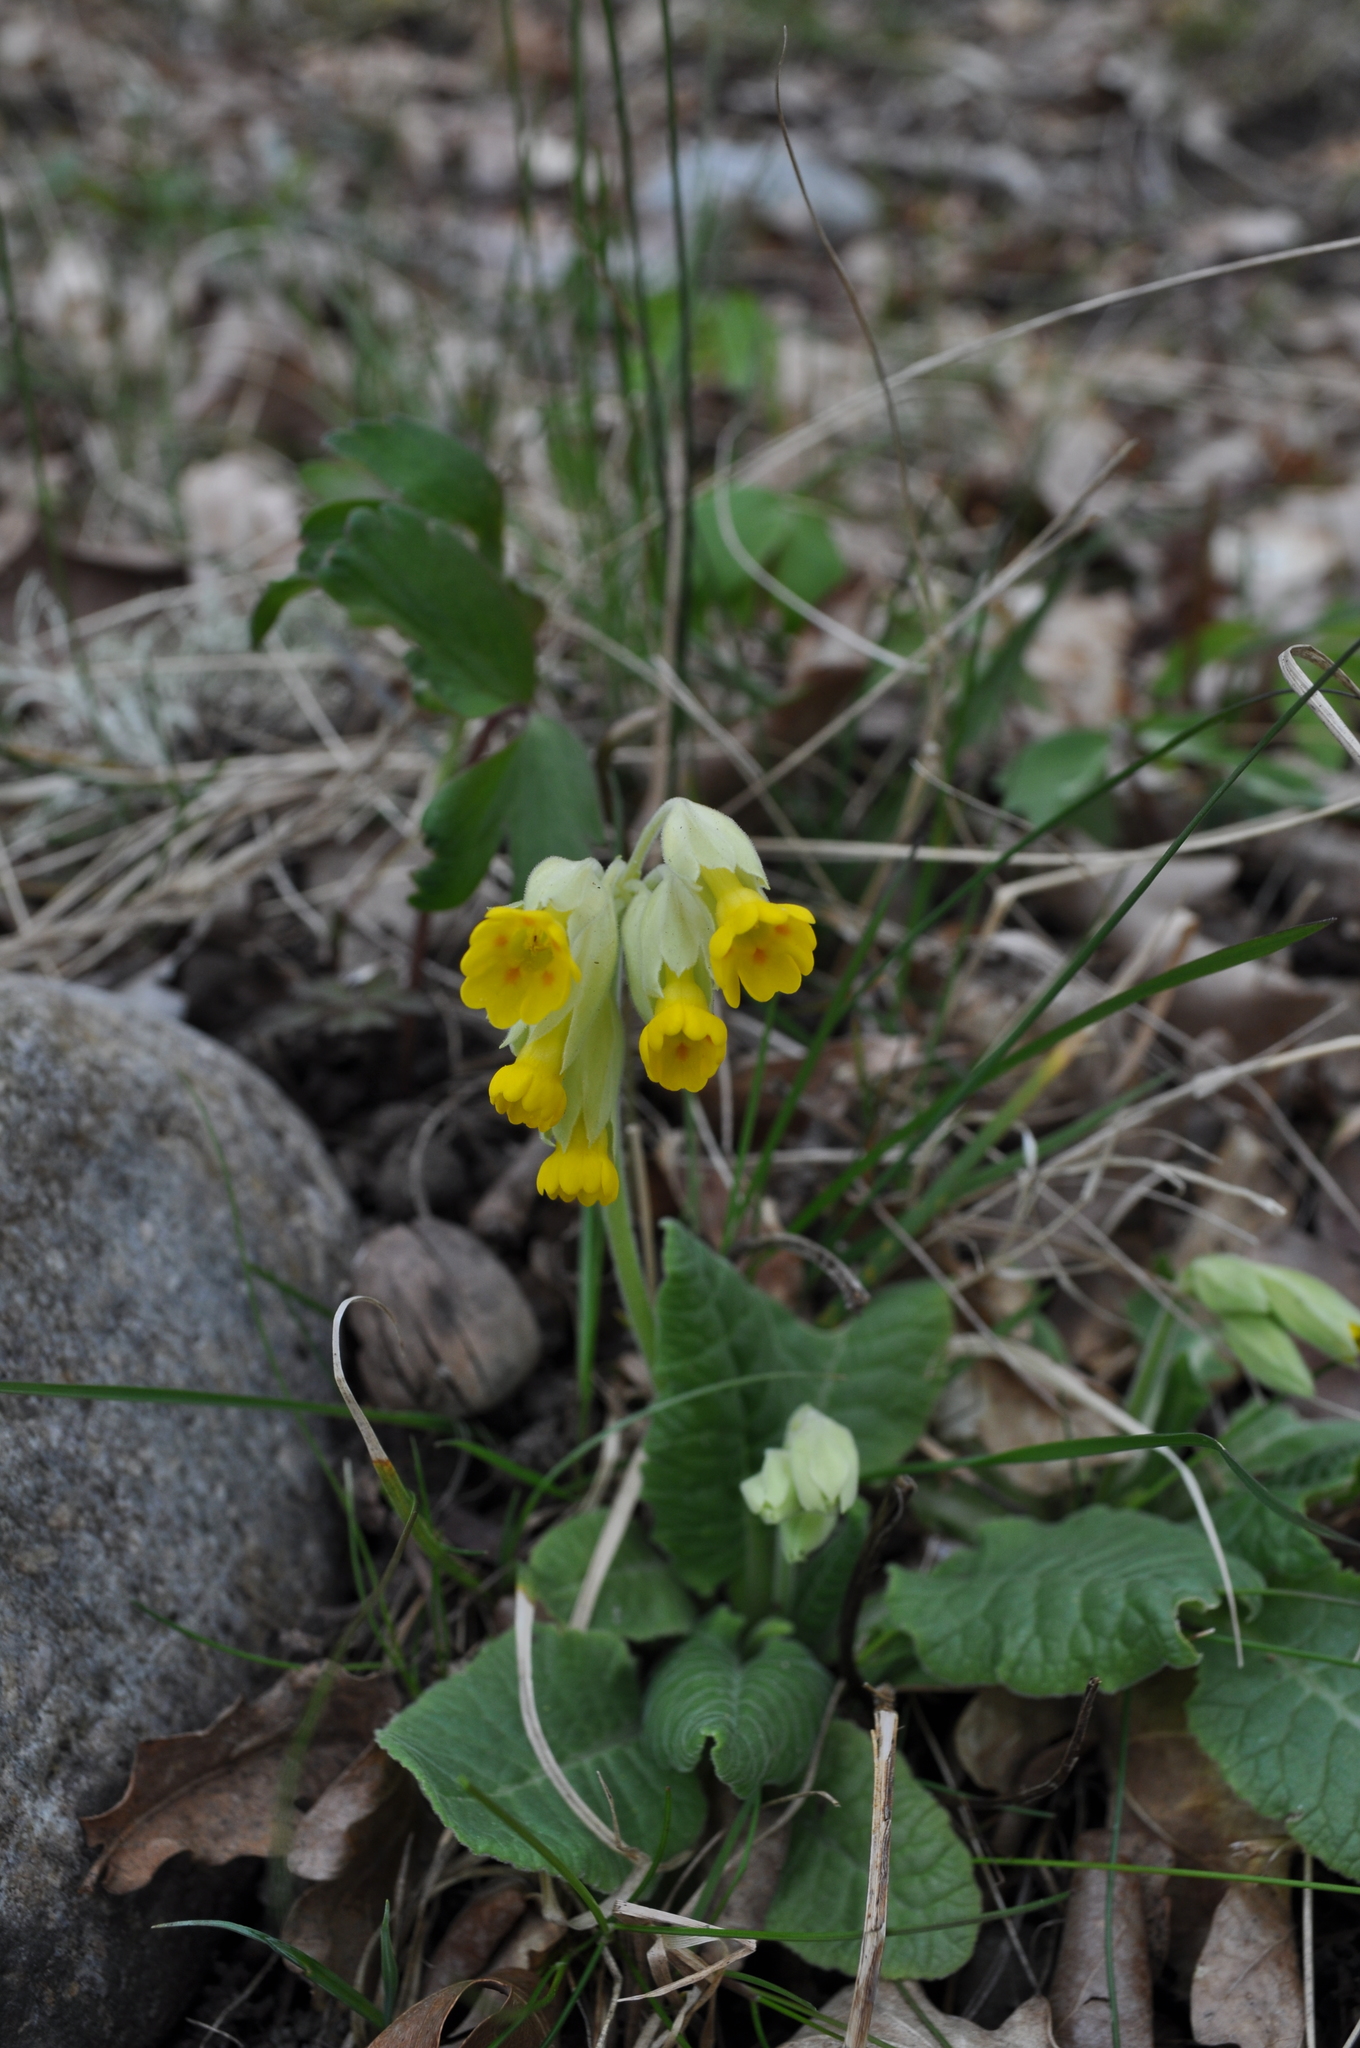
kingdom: Plantae
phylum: Tracheophyta
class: Magnoliopsida
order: Ericales
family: Primulaceae
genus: Primula
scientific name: Primula veris
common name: Cowslip
